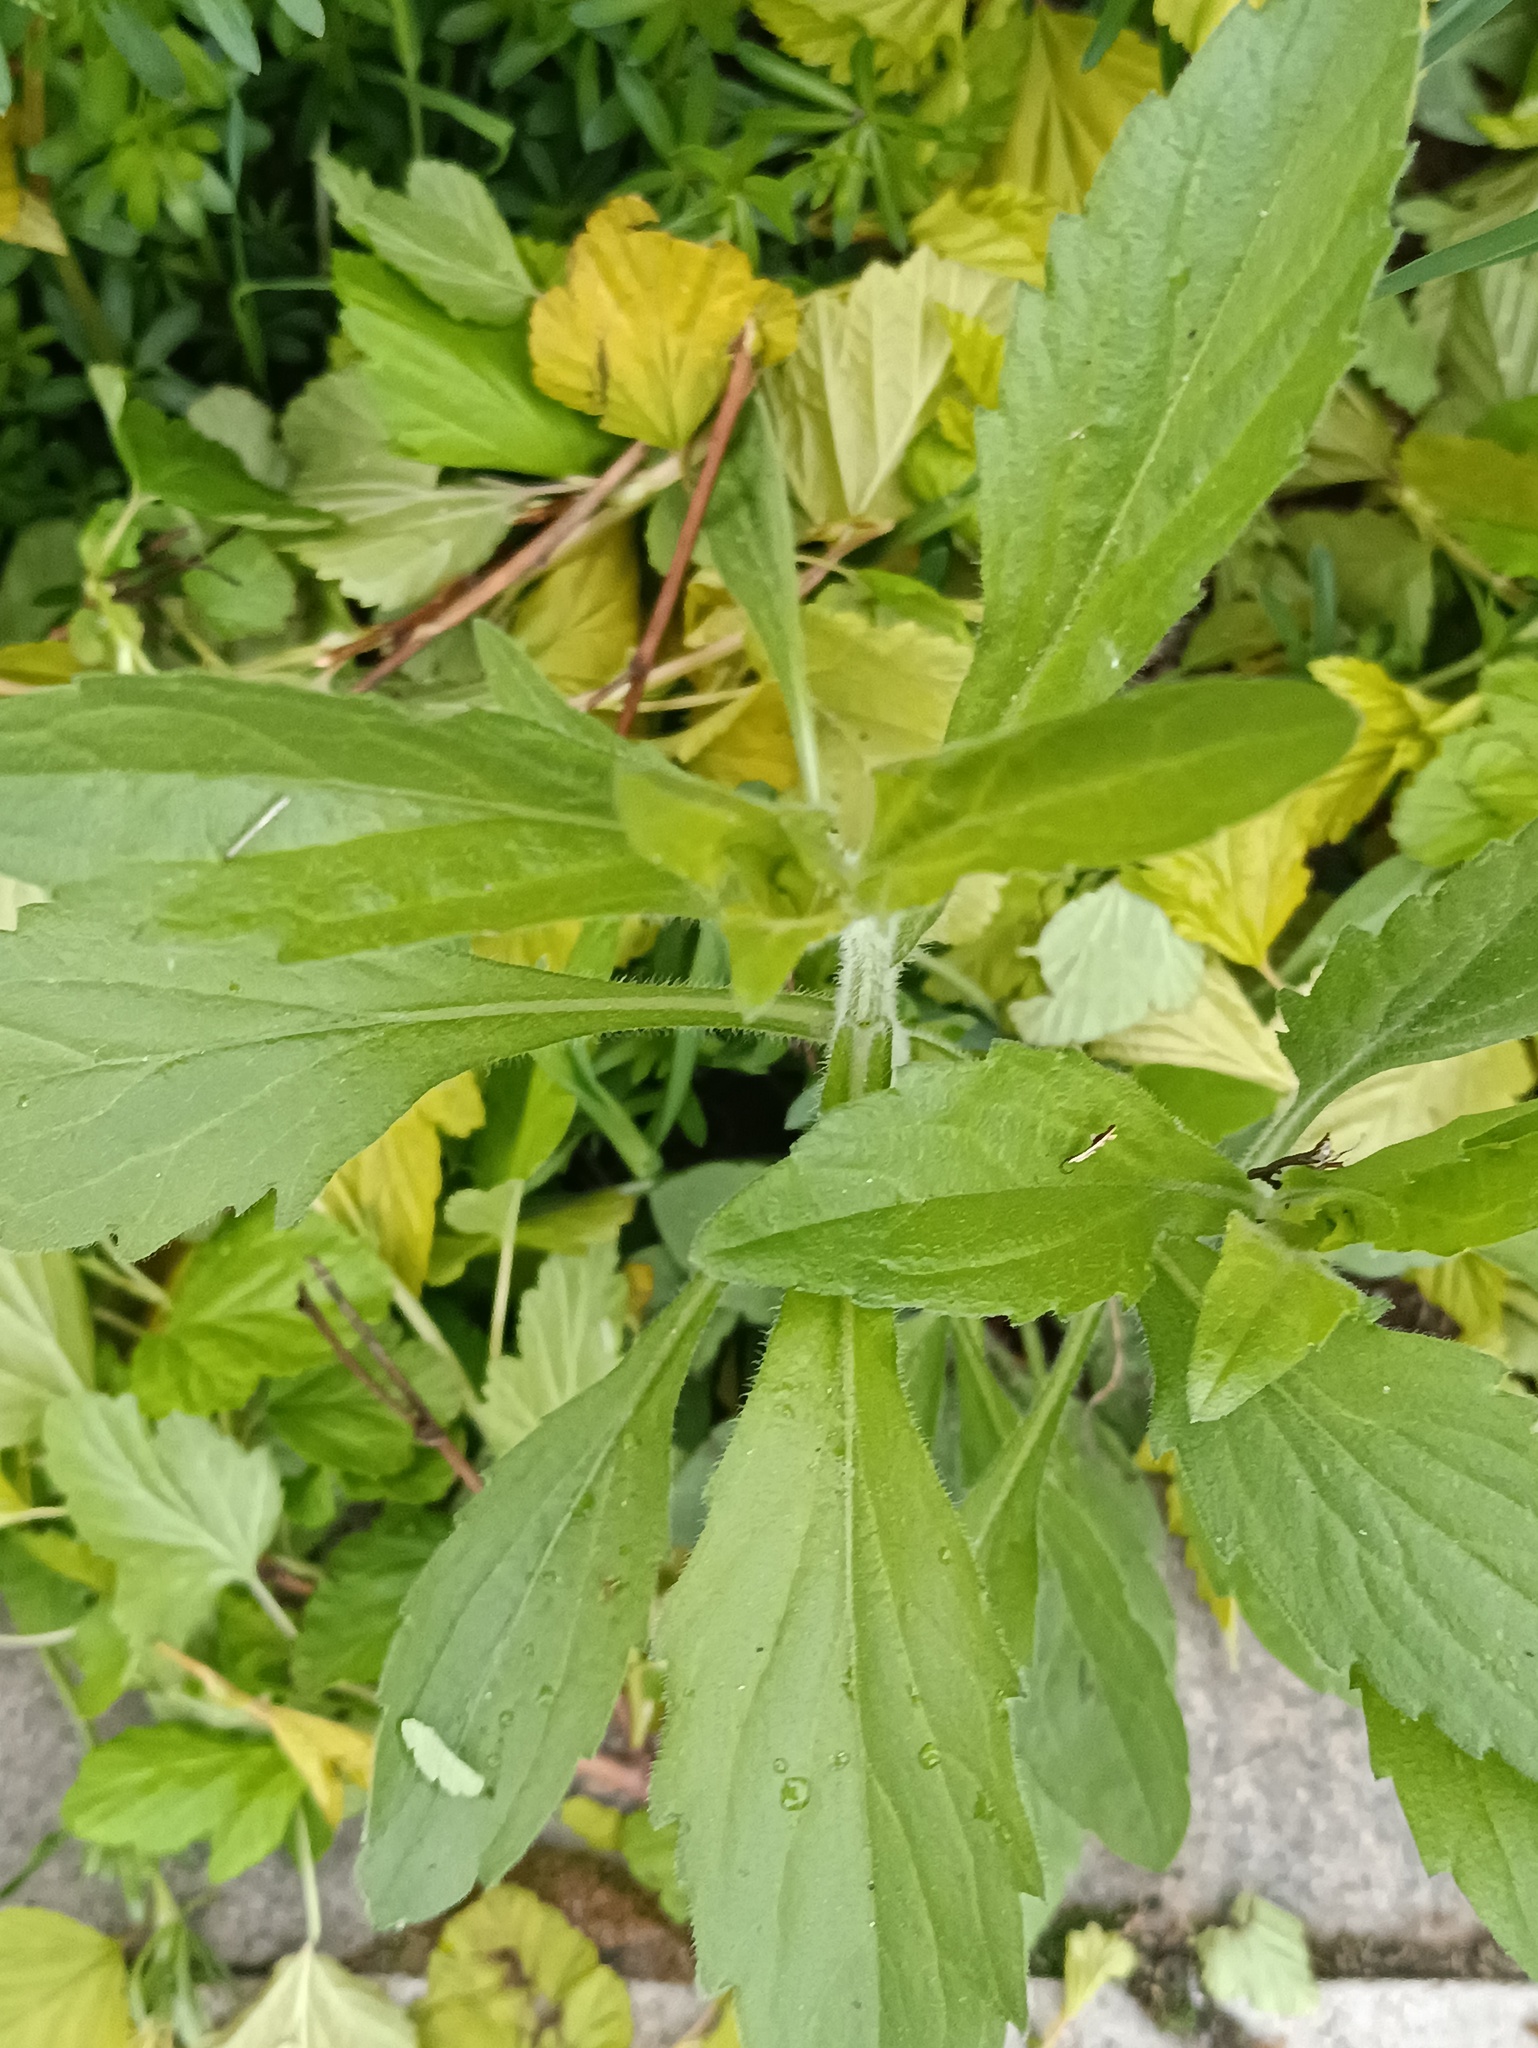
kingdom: Plantae
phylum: Tracheophyta
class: Magnoliopsida
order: Asterales
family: Asteraceae
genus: Erigeron
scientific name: Erigeron annuus
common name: Tall fleabane
